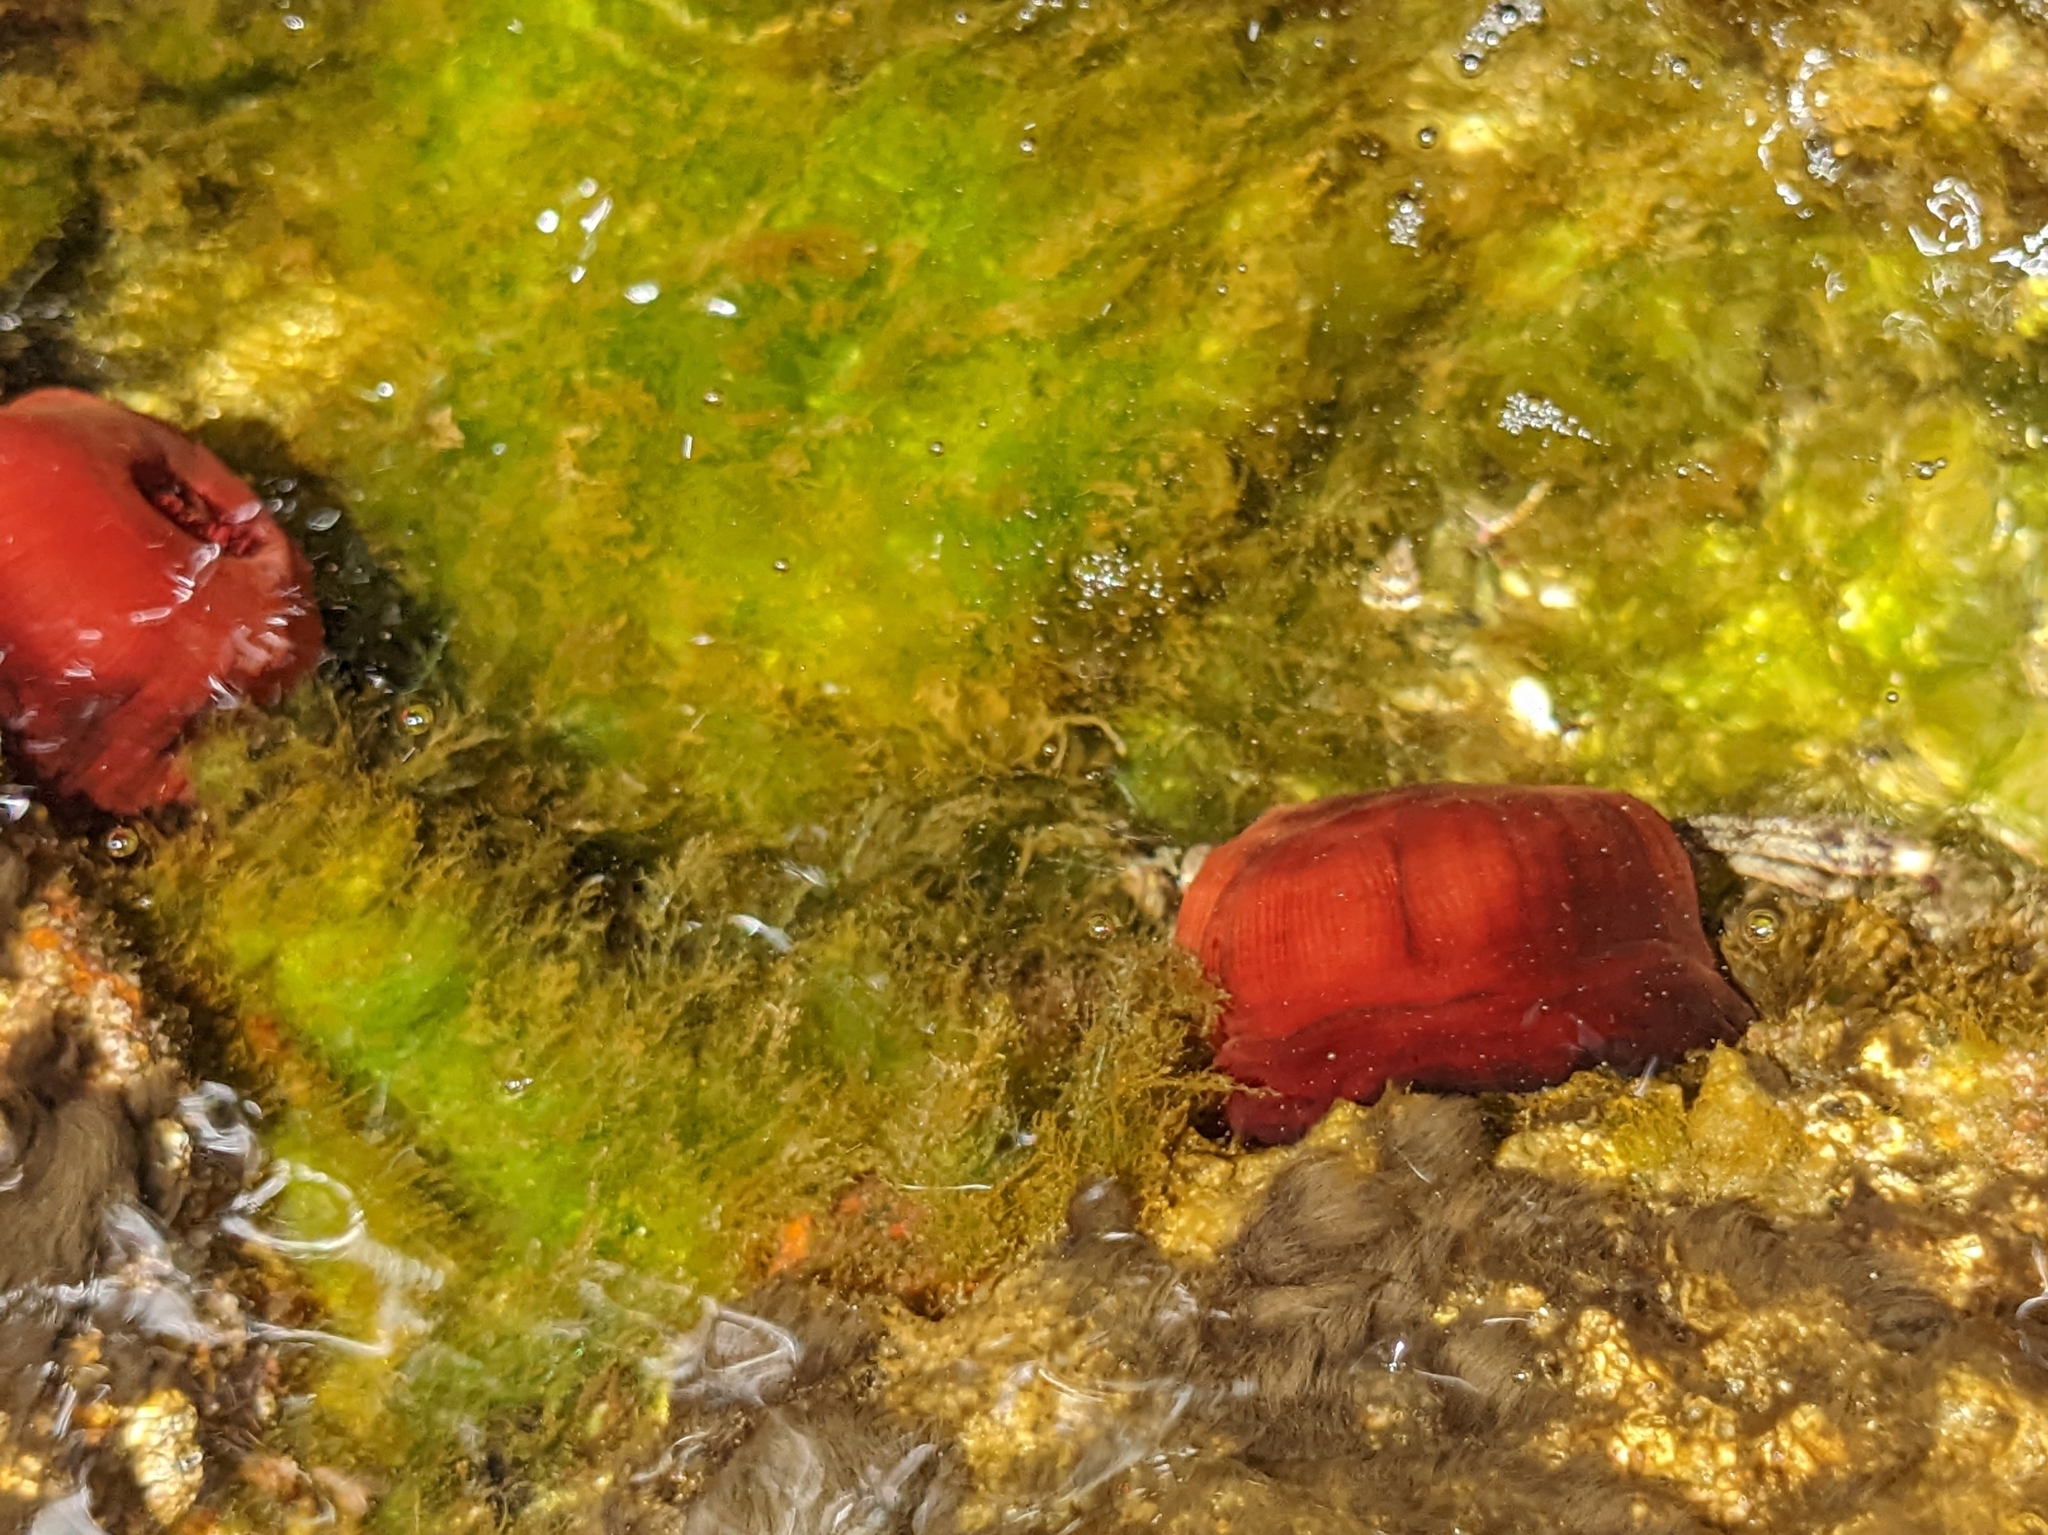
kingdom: Animalia
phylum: Cnidaria
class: Anthozoa
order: Actiniaria
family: Actiniidae
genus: Actinia
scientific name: Actinia mediterranea
